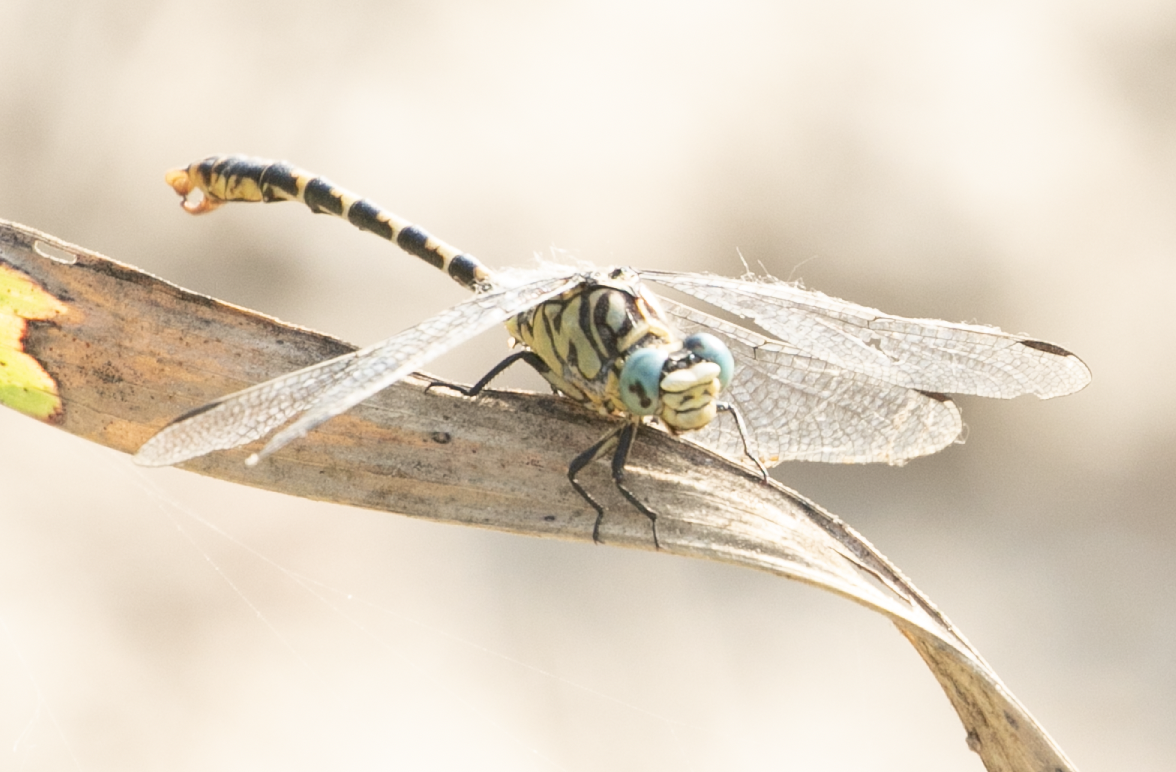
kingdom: Animalia
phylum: Arthropoda
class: Insecta
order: Odonata
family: Gomphidae
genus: Onychogomphus
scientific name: Onychogomphus forcipatus
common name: Small pincertail
